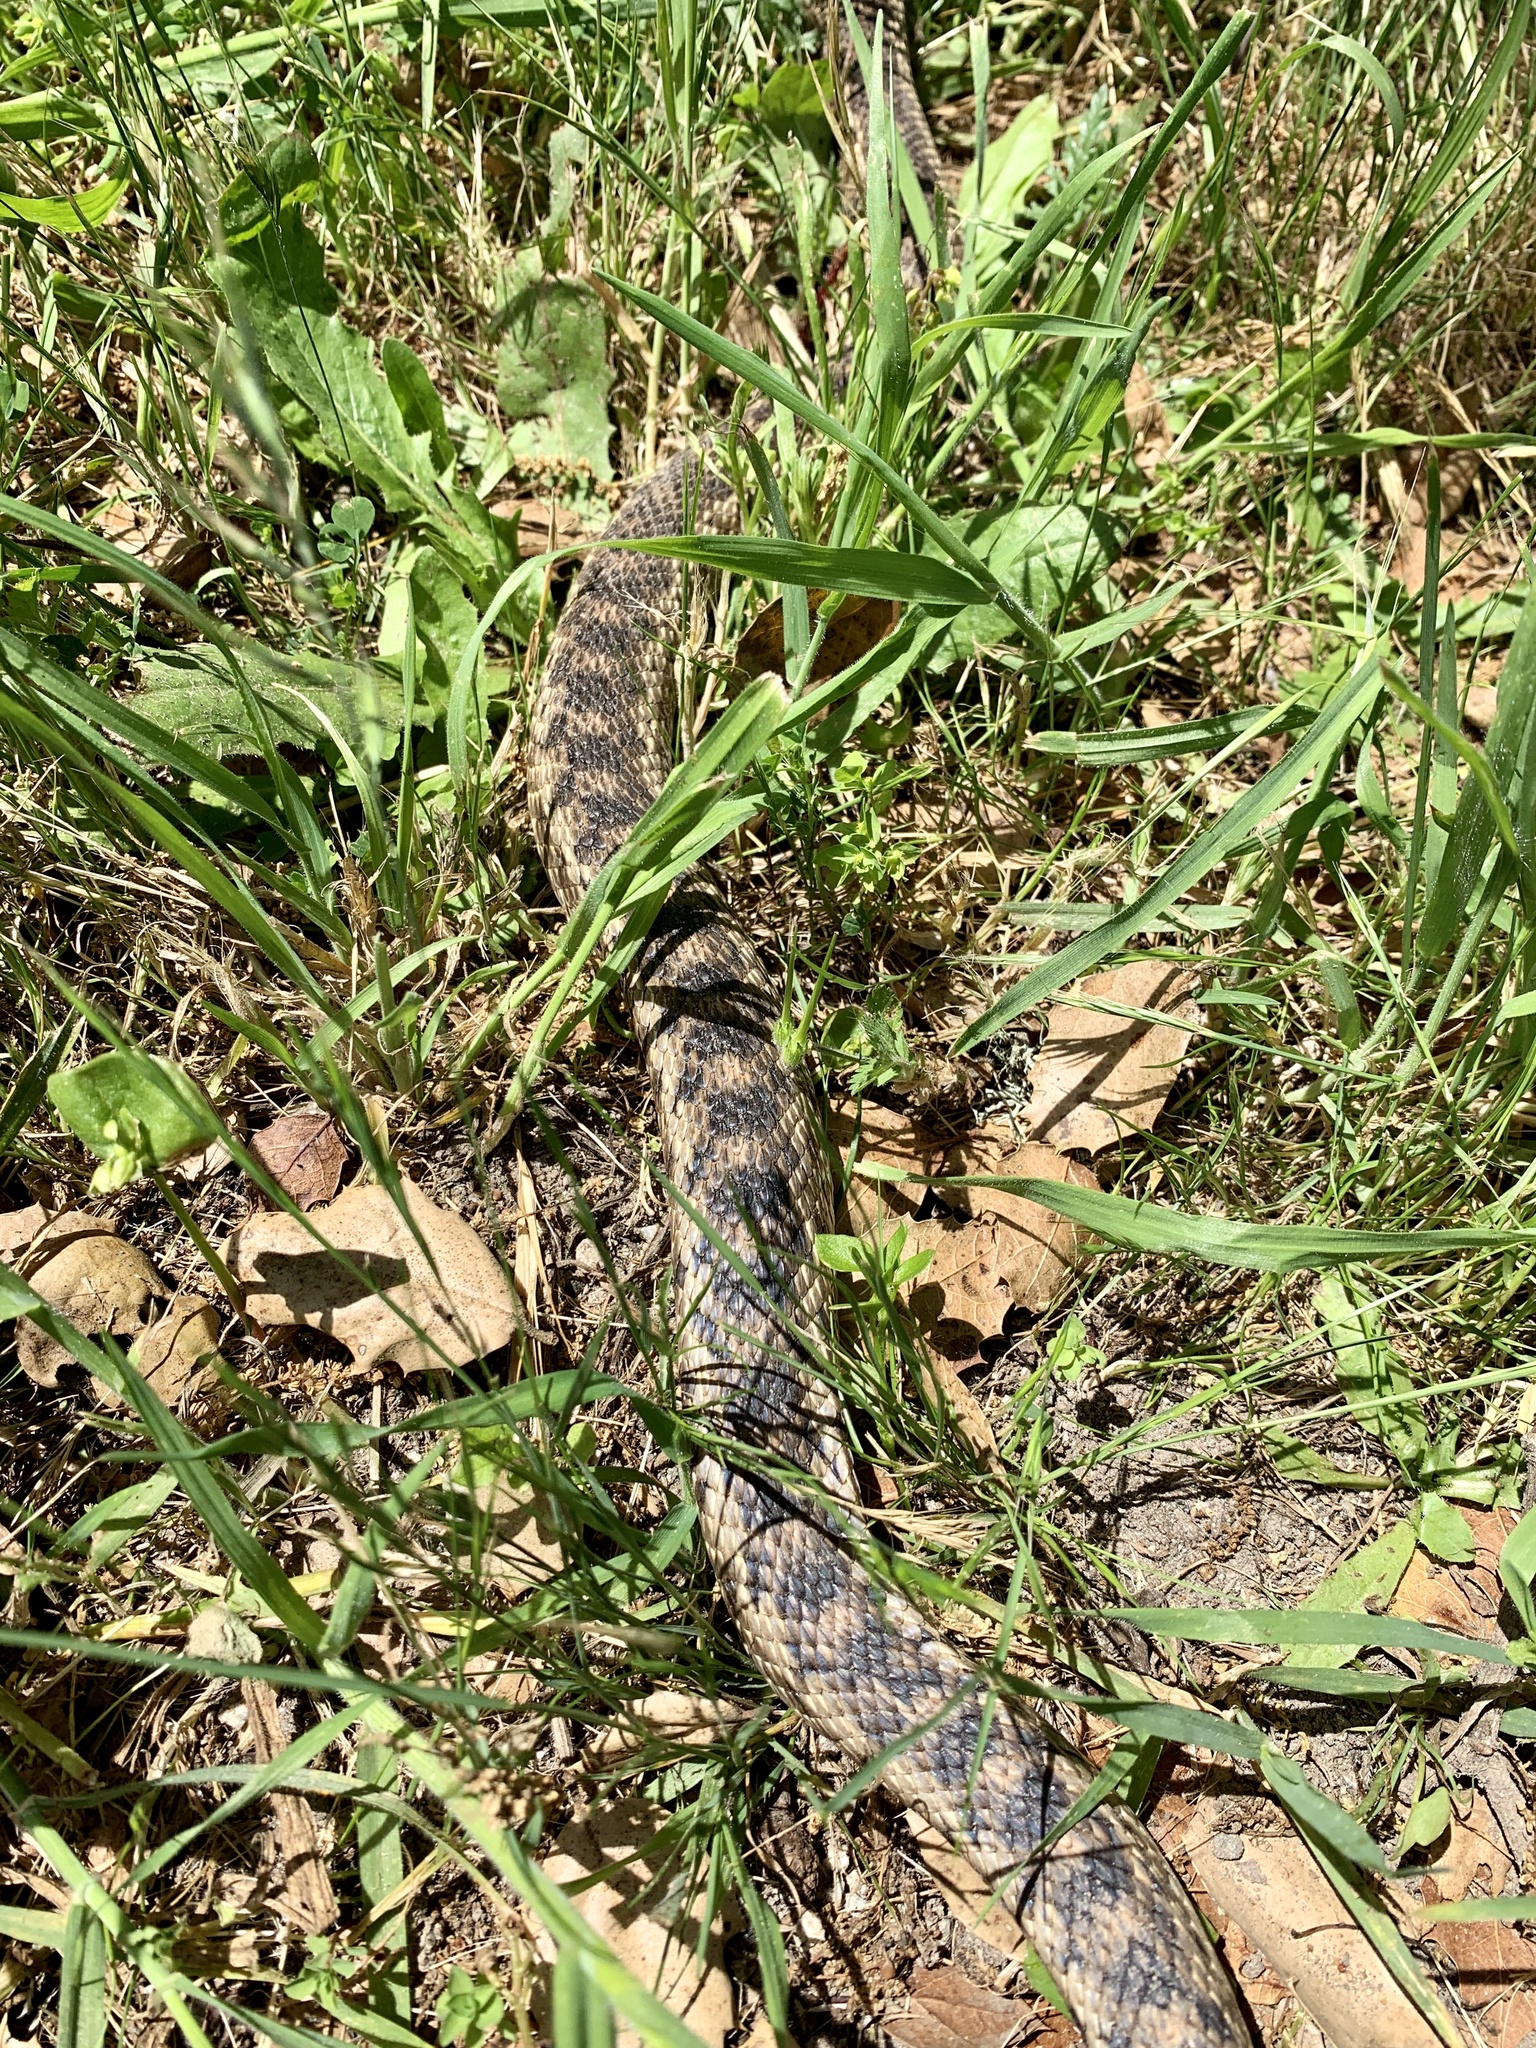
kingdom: Animalia
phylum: Chordata
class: Squamata
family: Colubridae
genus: Pituophis
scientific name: Pituophis catenifer
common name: Gopher snake
